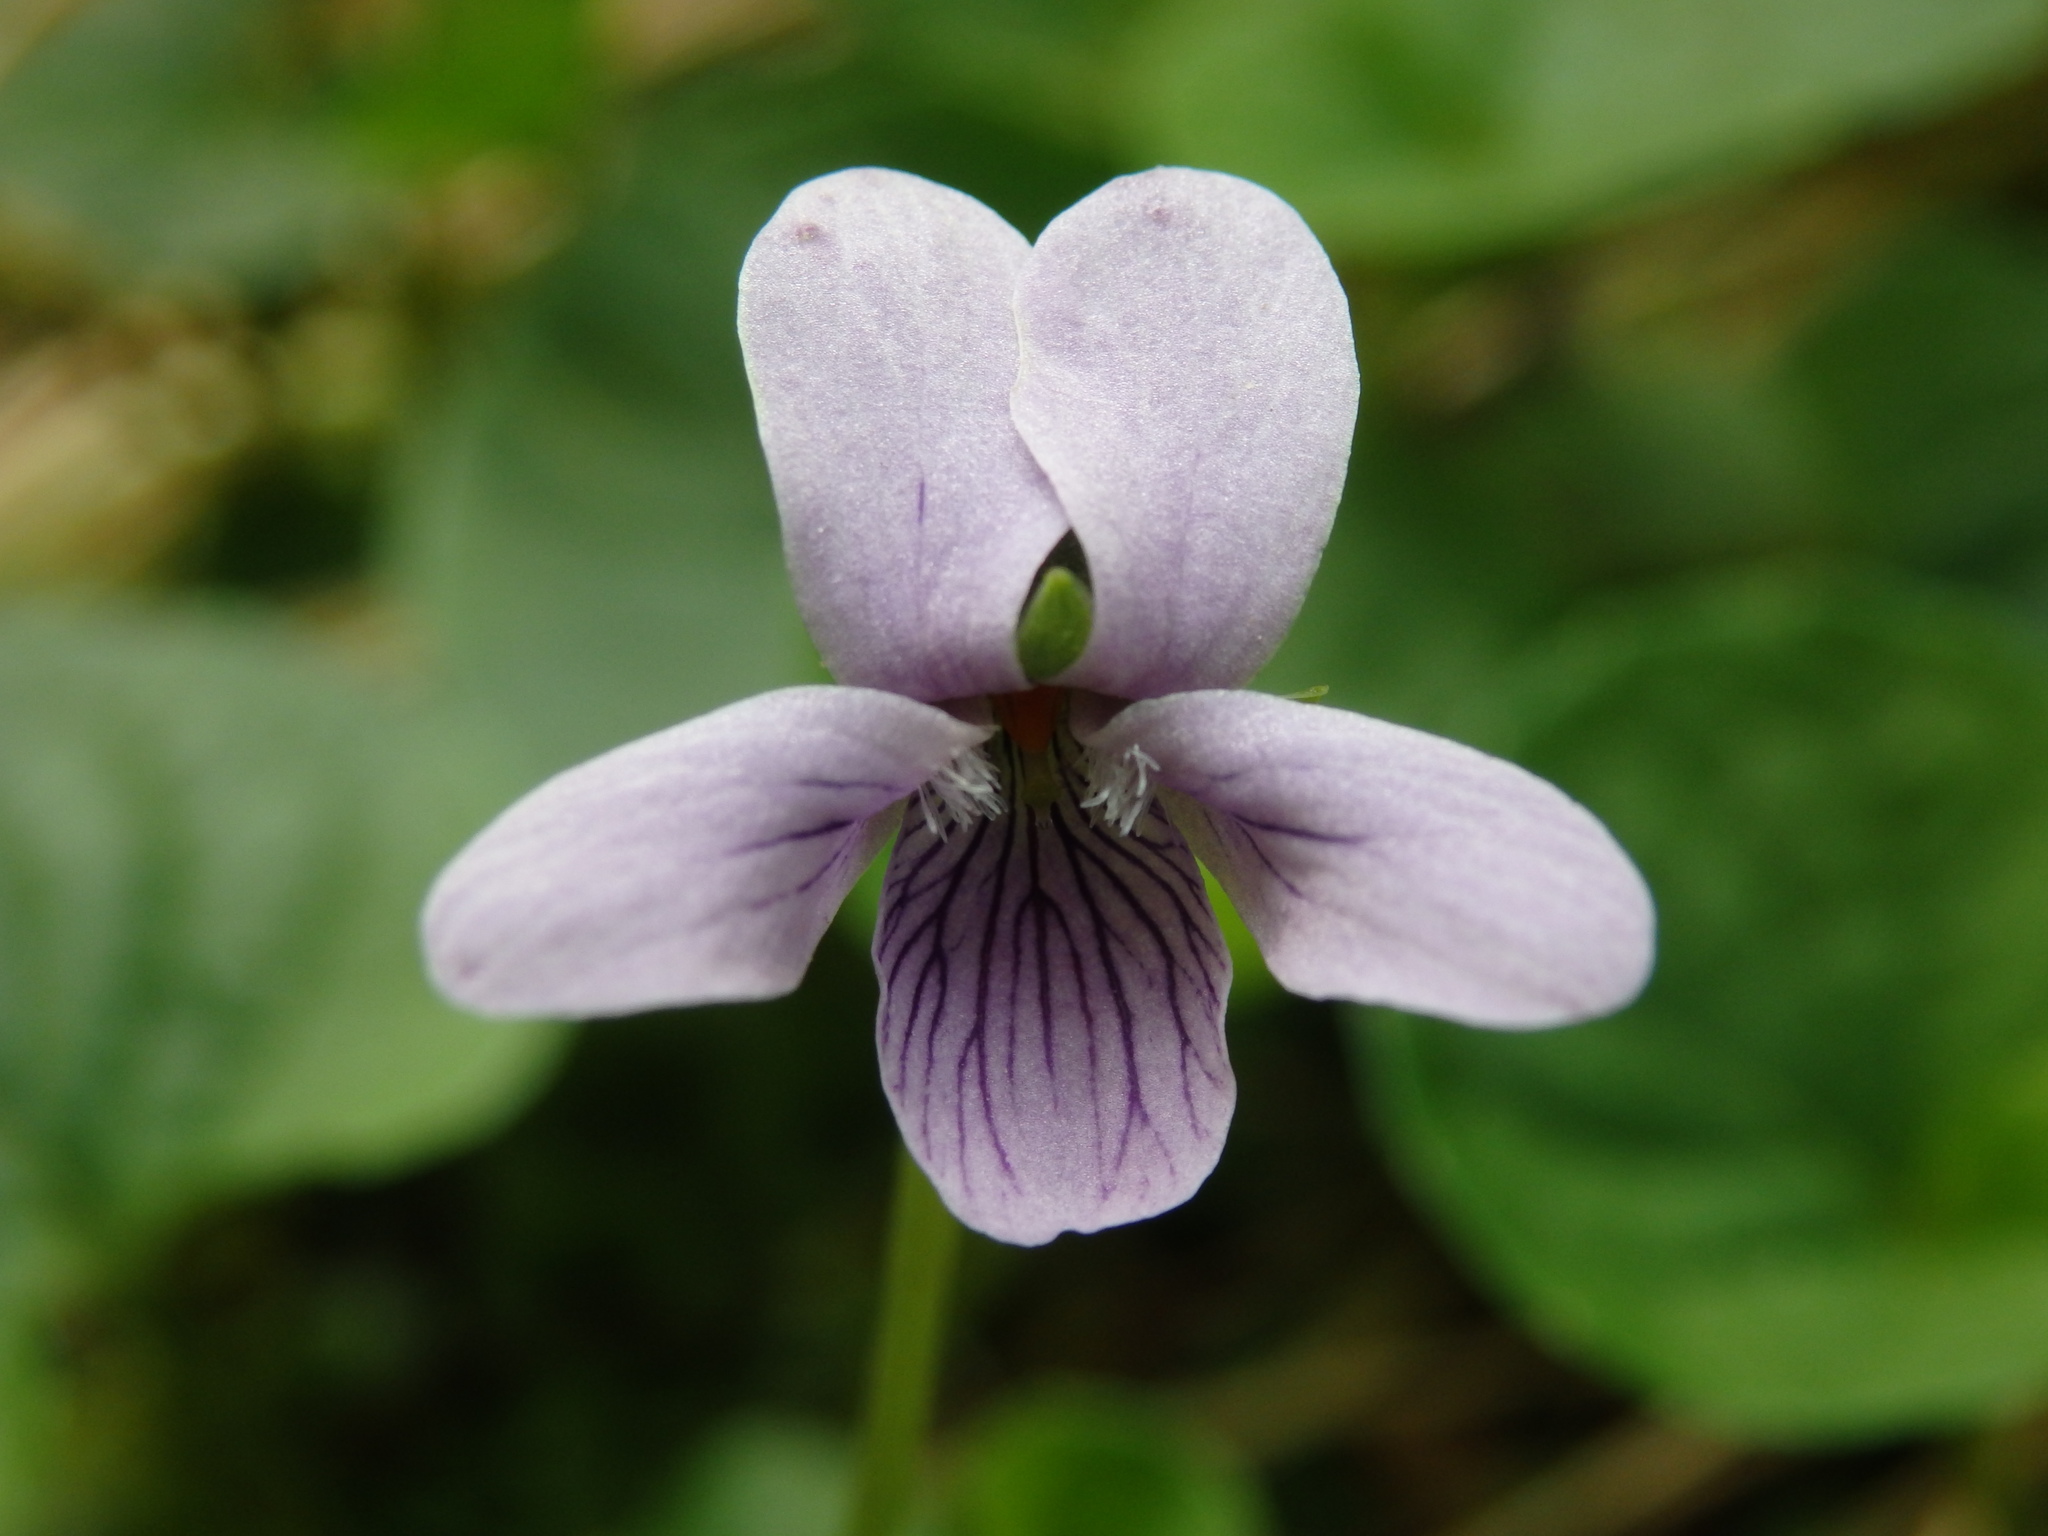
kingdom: Plantae
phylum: Tracheophyta
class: Magnoliopsida
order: Malpighiales
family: Violaceae
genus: Viola
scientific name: Viola palustris
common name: Marsh violet
